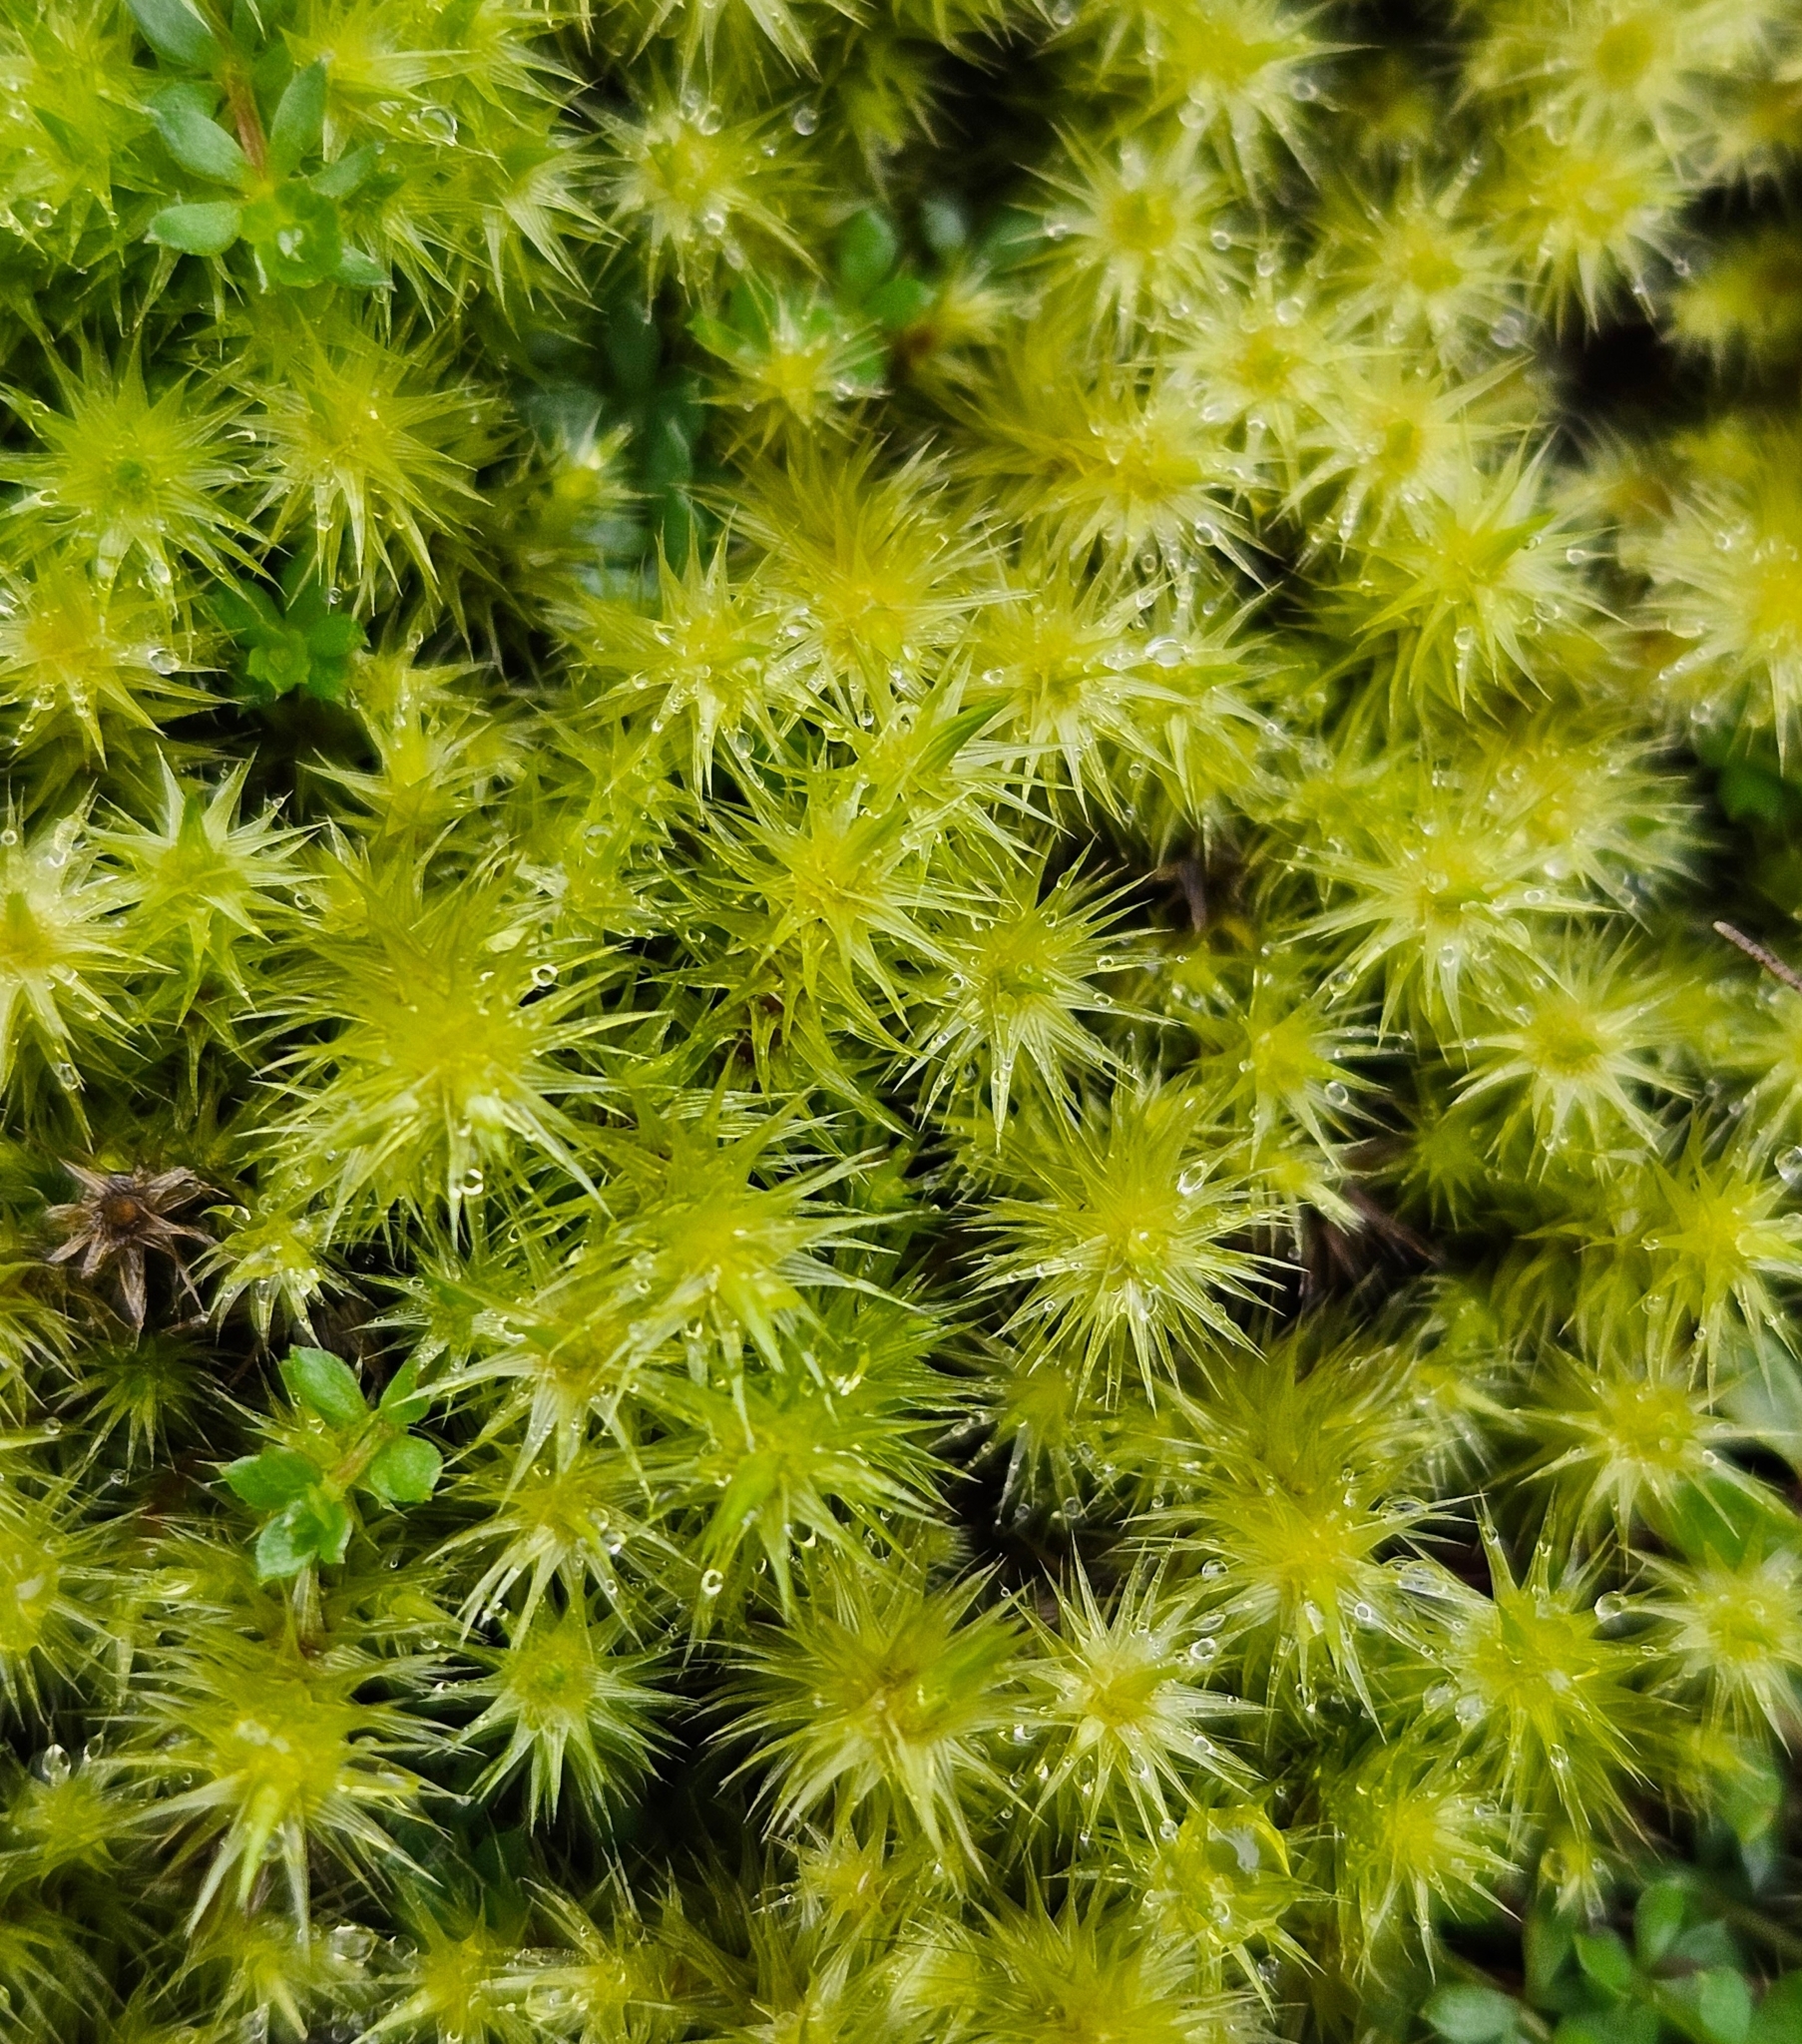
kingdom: Plantae
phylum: Bryophyta
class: Bryopsida
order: Bartramiales
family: Bartramiaceae
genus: Breutelia
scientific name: Breutelia chrysocoma
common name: Bottle-brush moss
